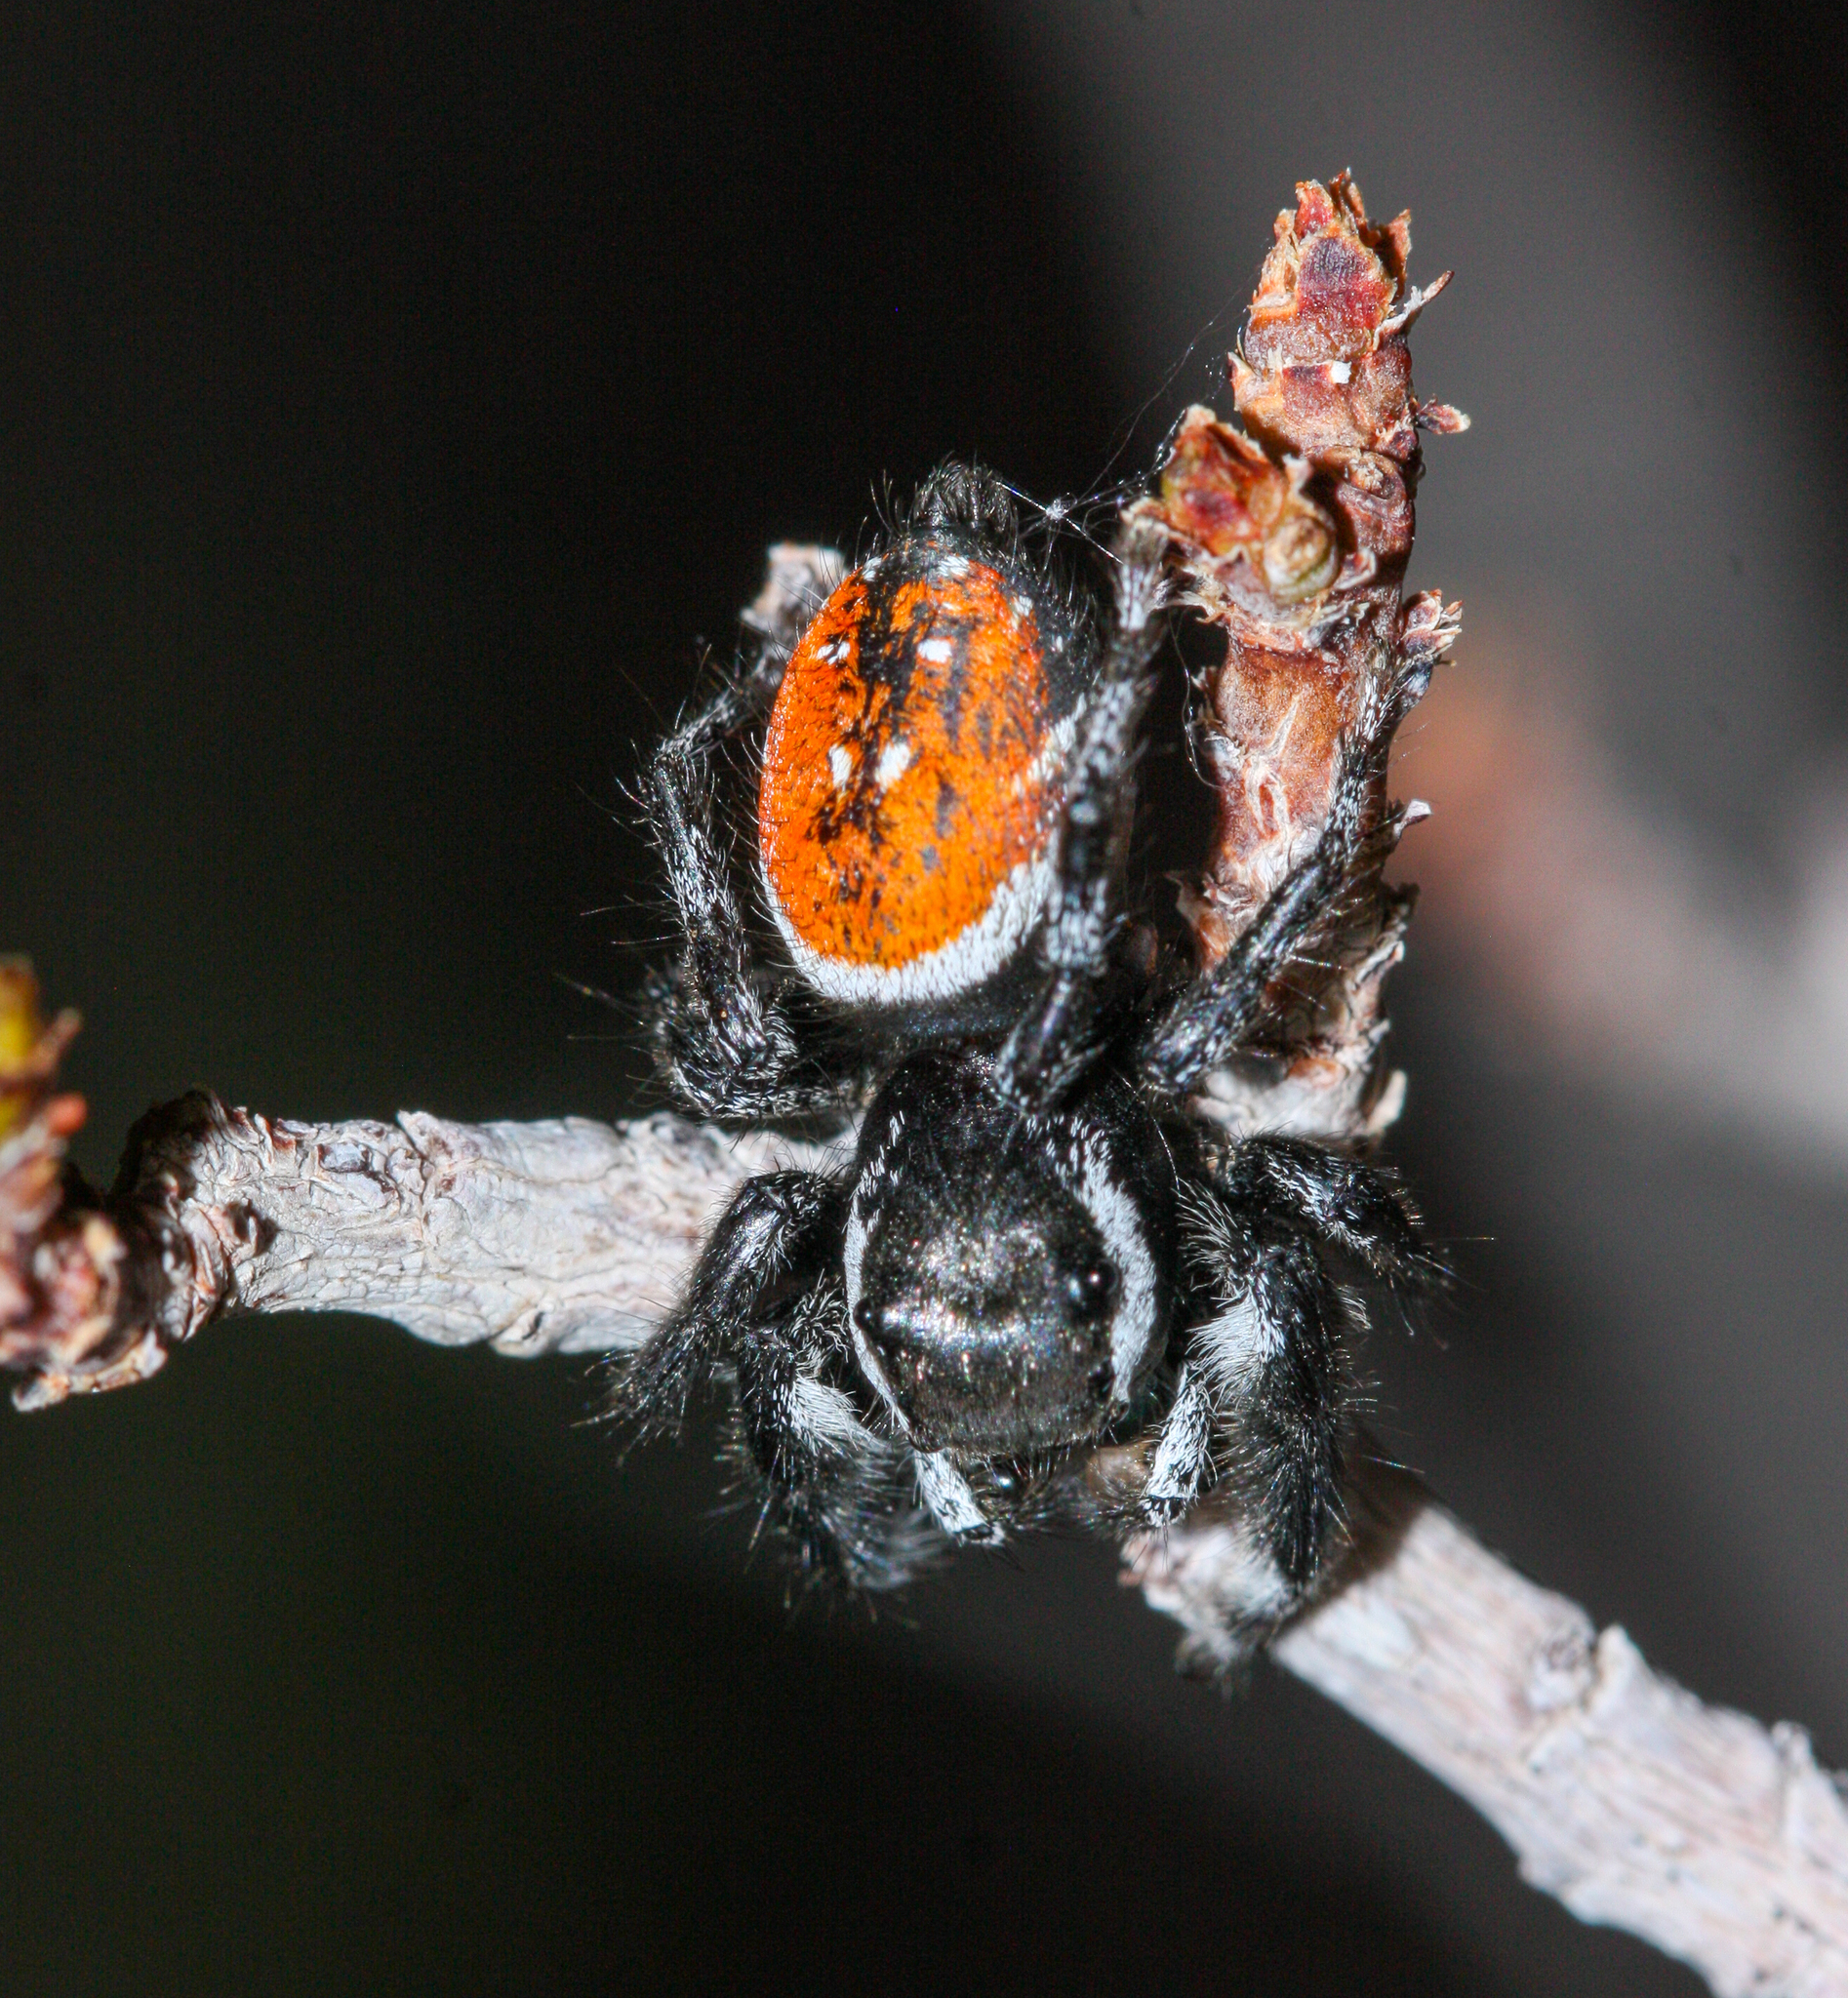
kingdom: Animalia
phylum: Arthropoda
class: Arachnida
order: Araneae
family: Salticidae
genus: Phidippus
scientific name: Phidippus carneus
